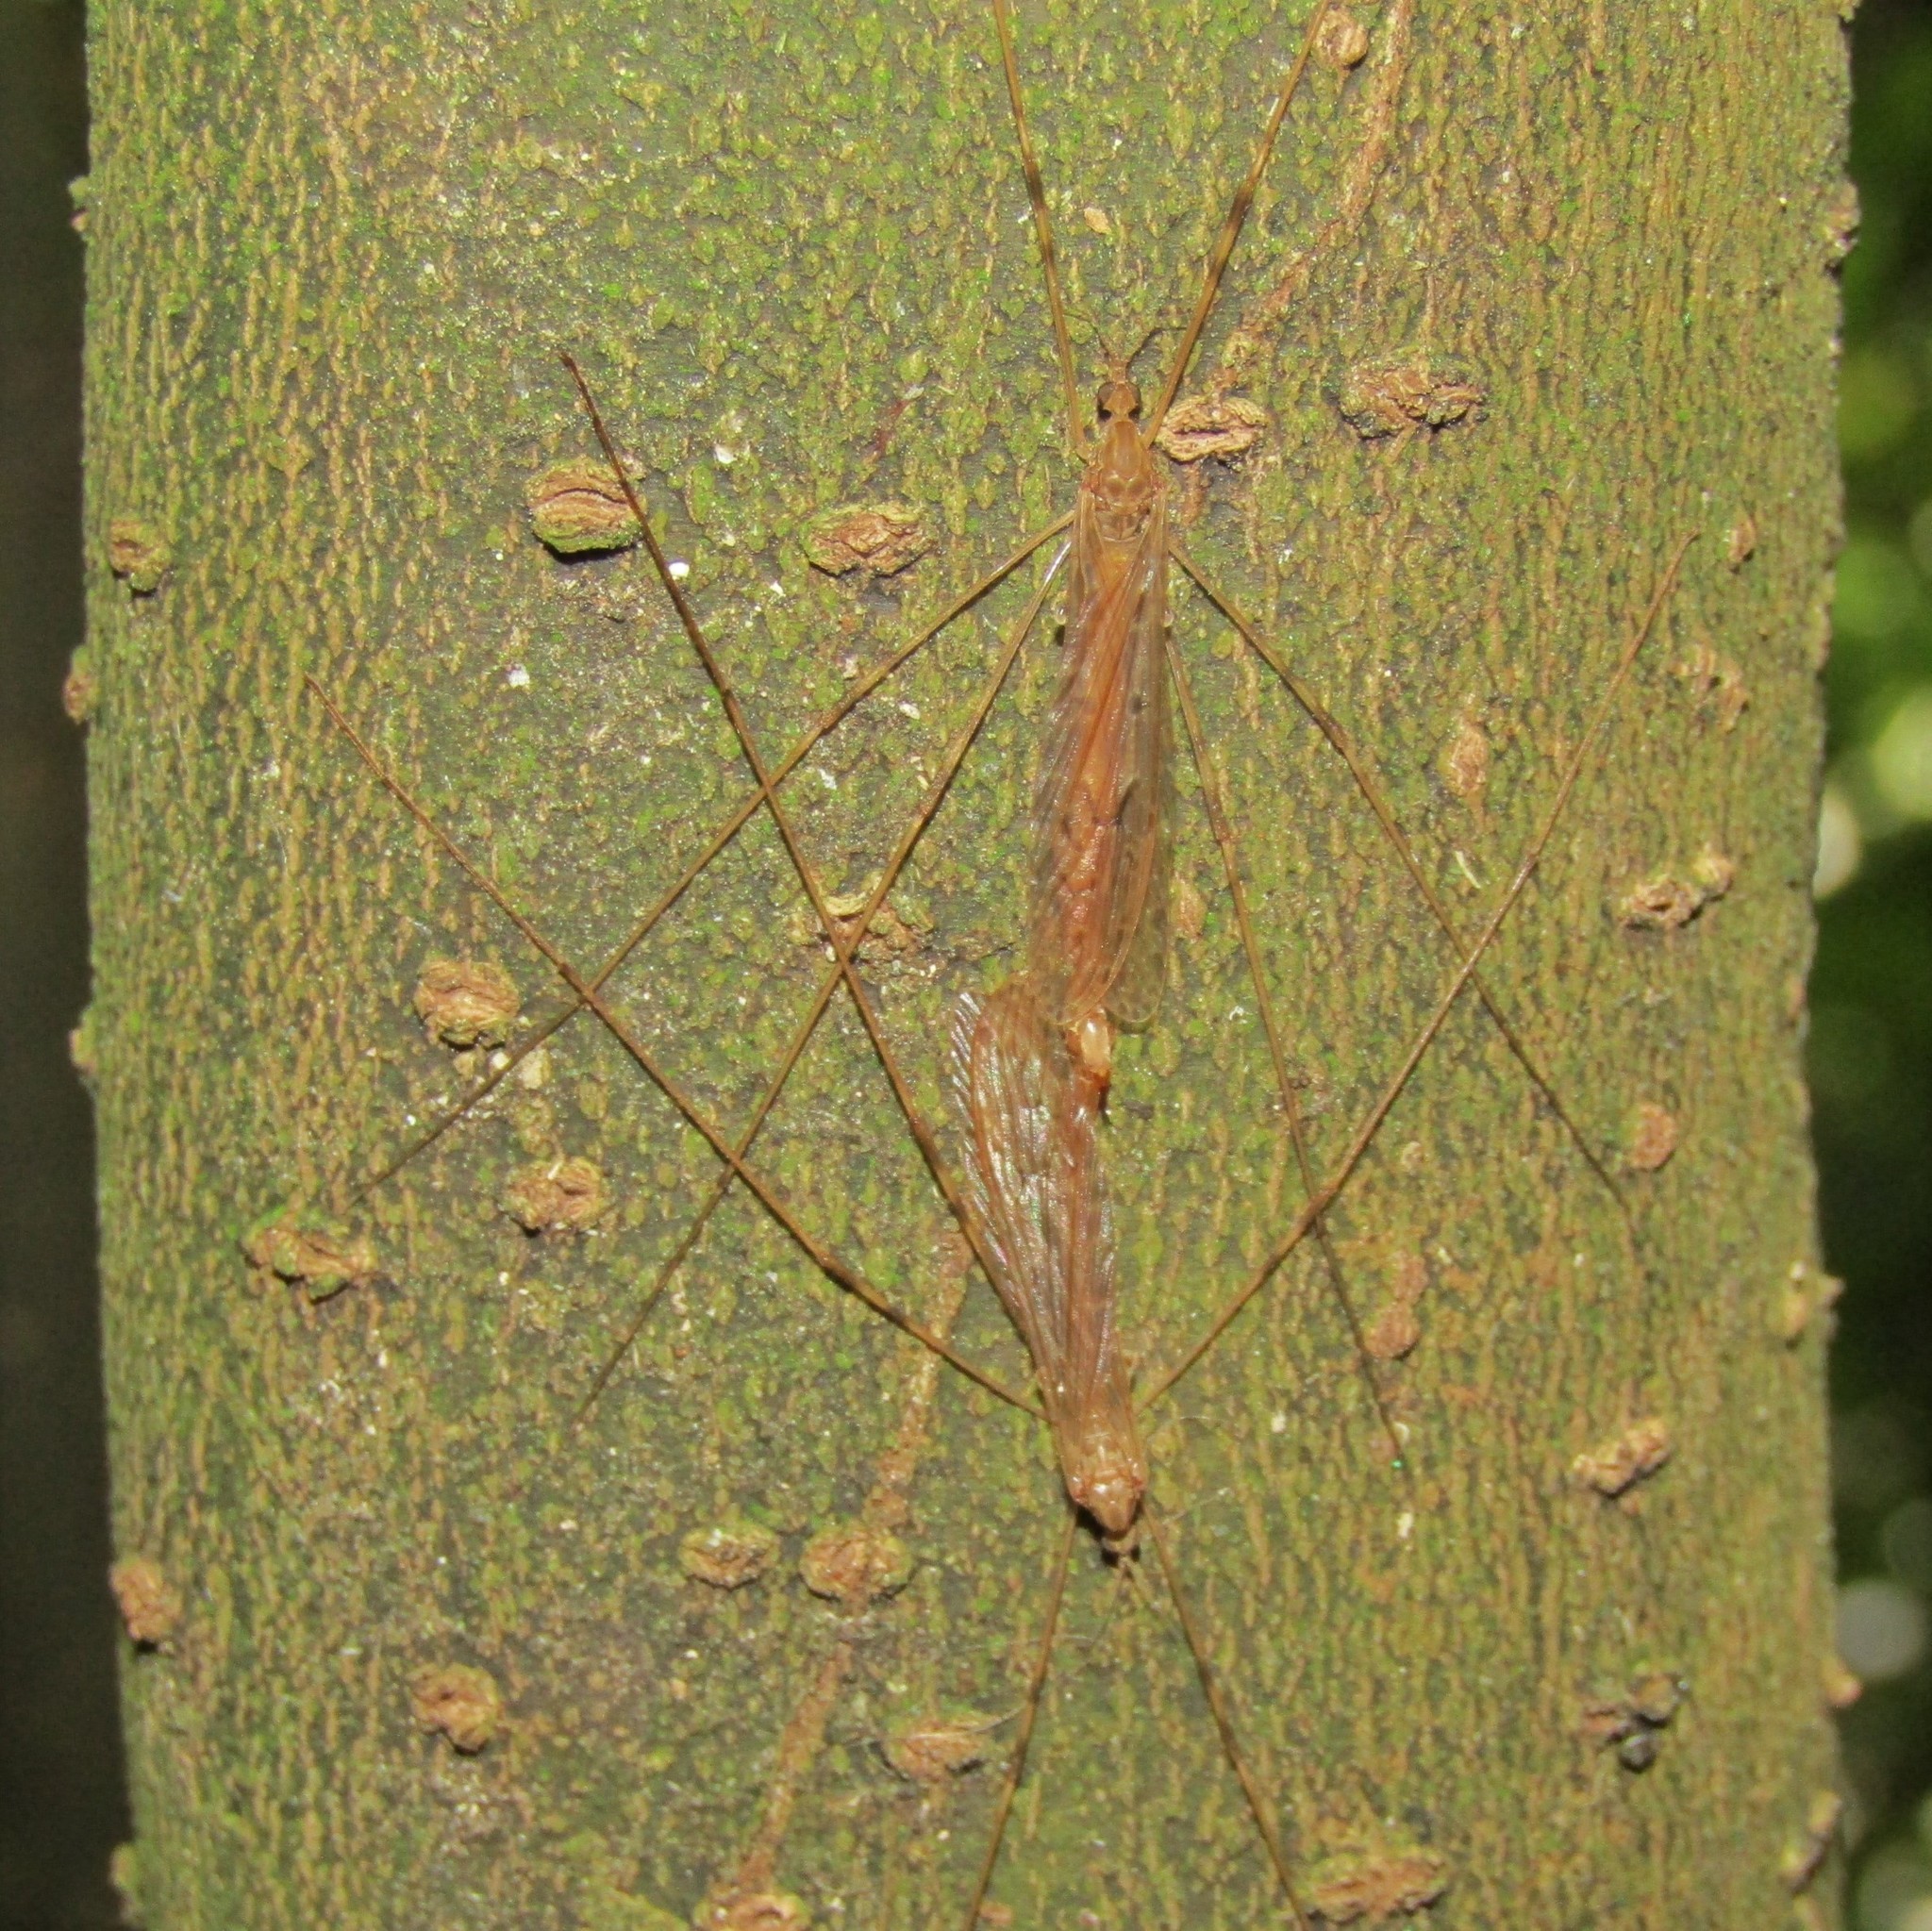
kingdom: Animalia
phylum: Arthropoda
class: Insecta
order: Diptera
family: Limoniidae
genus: Austrolimnophila
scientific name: Austrolimnophila crassipes
